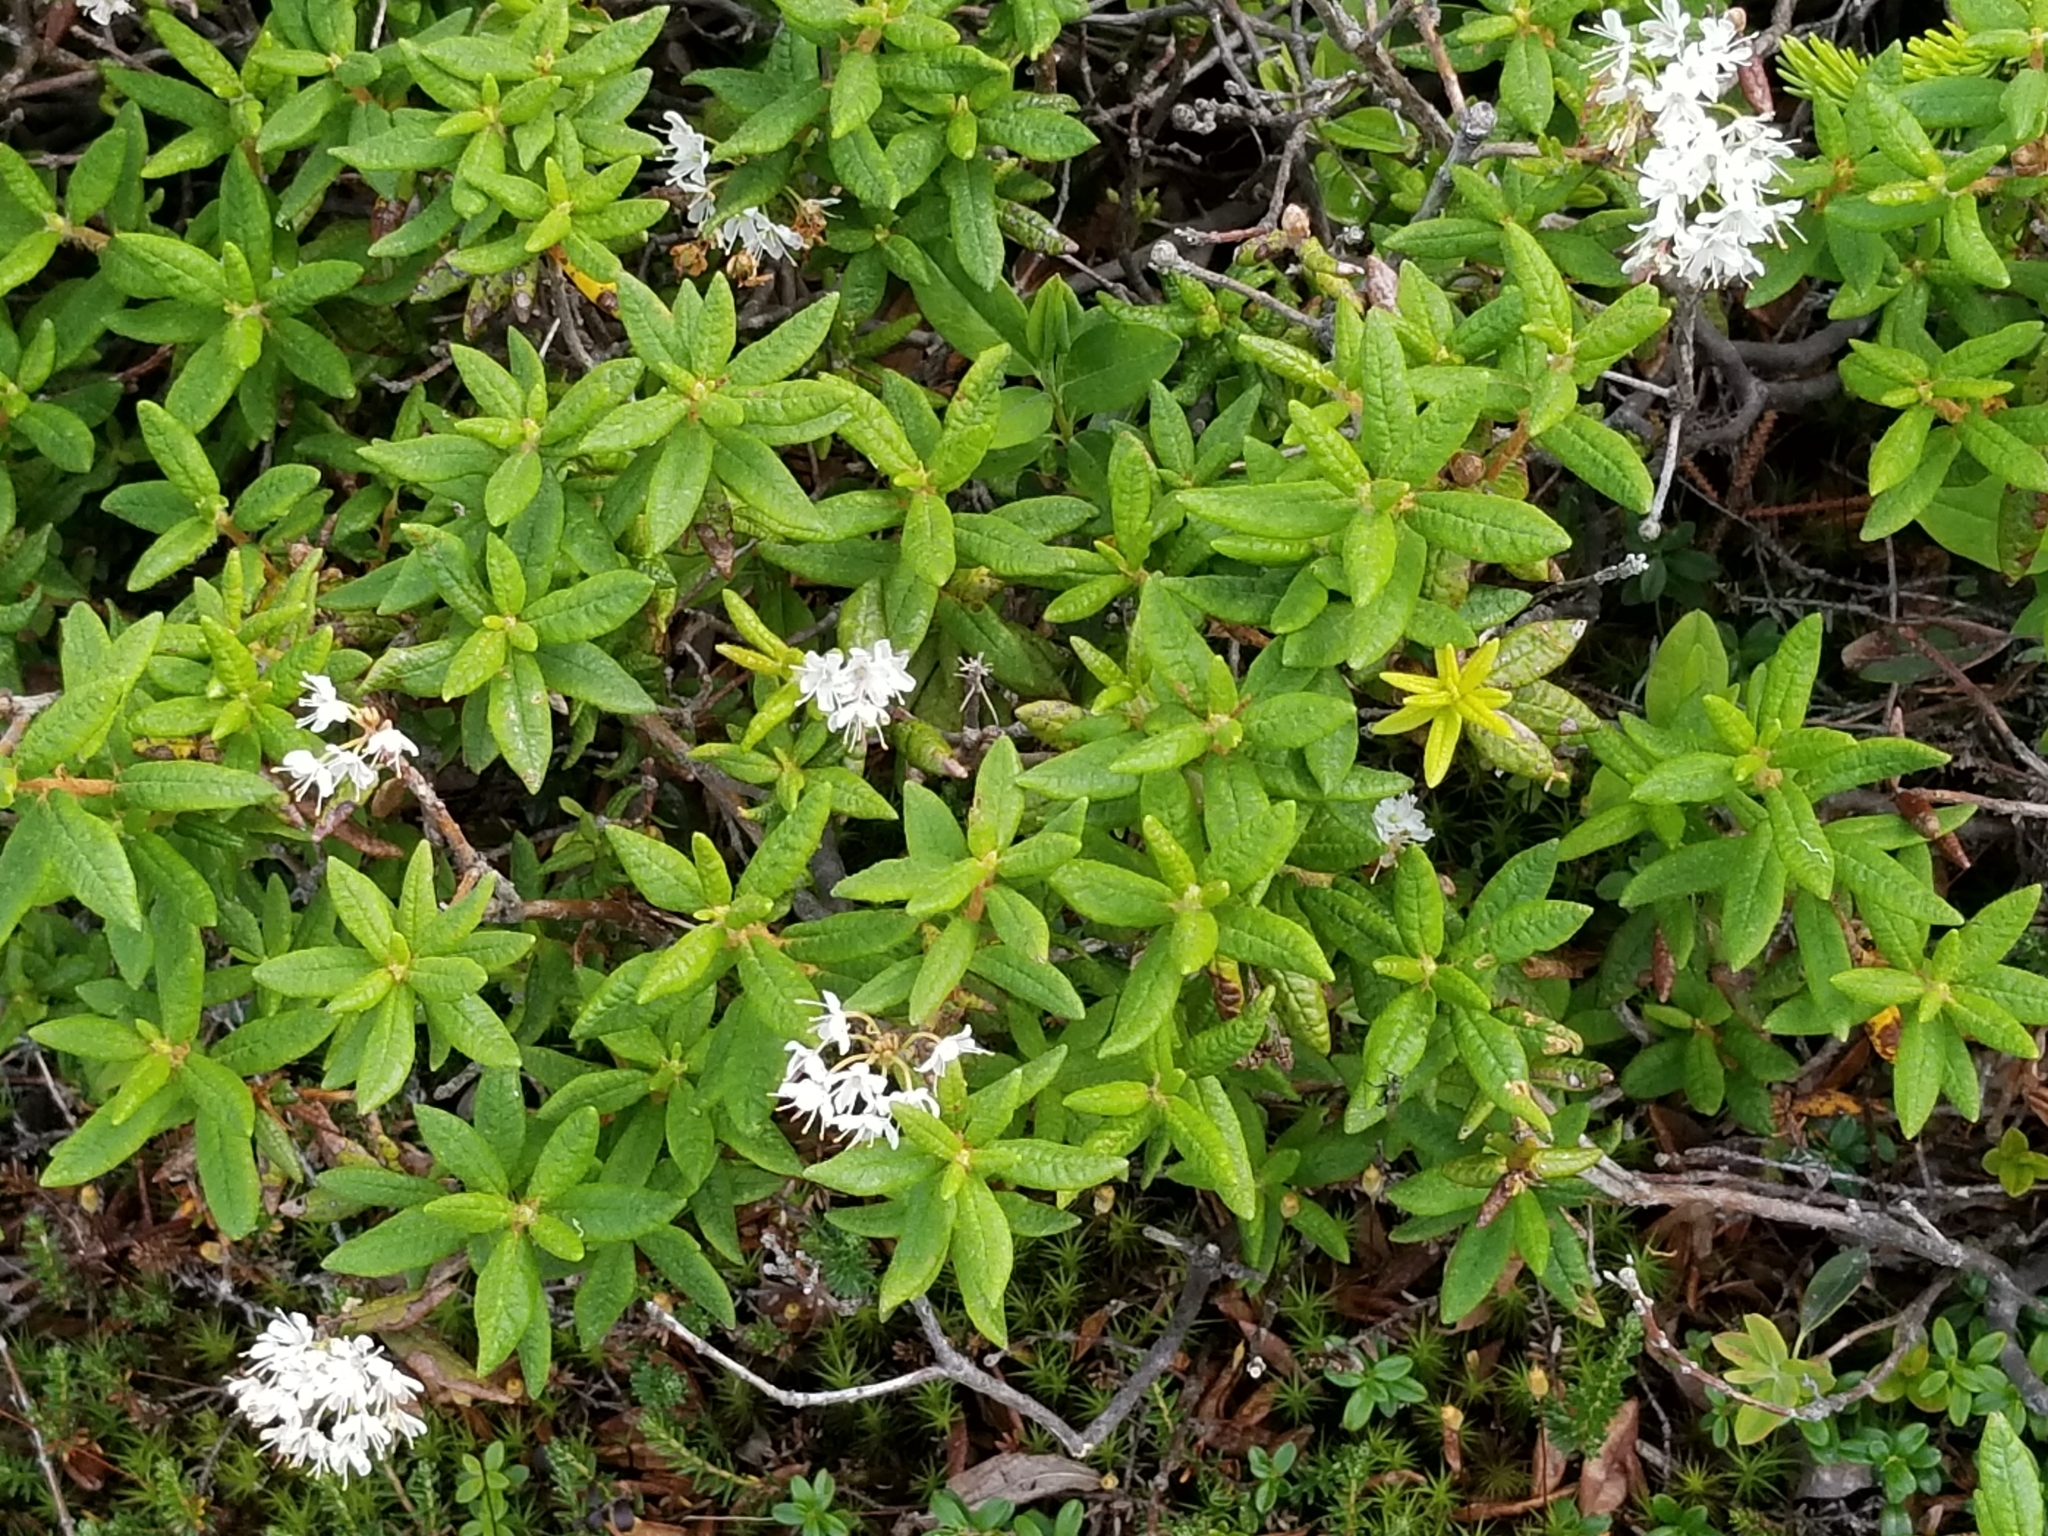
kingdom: Plantae
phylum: Tracheophyta
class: Magnoliopsida
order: Ericales
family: Ericaceae
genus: Rhododendron
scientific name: Rhododendron groenlandicum
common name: Bog labrador tea
